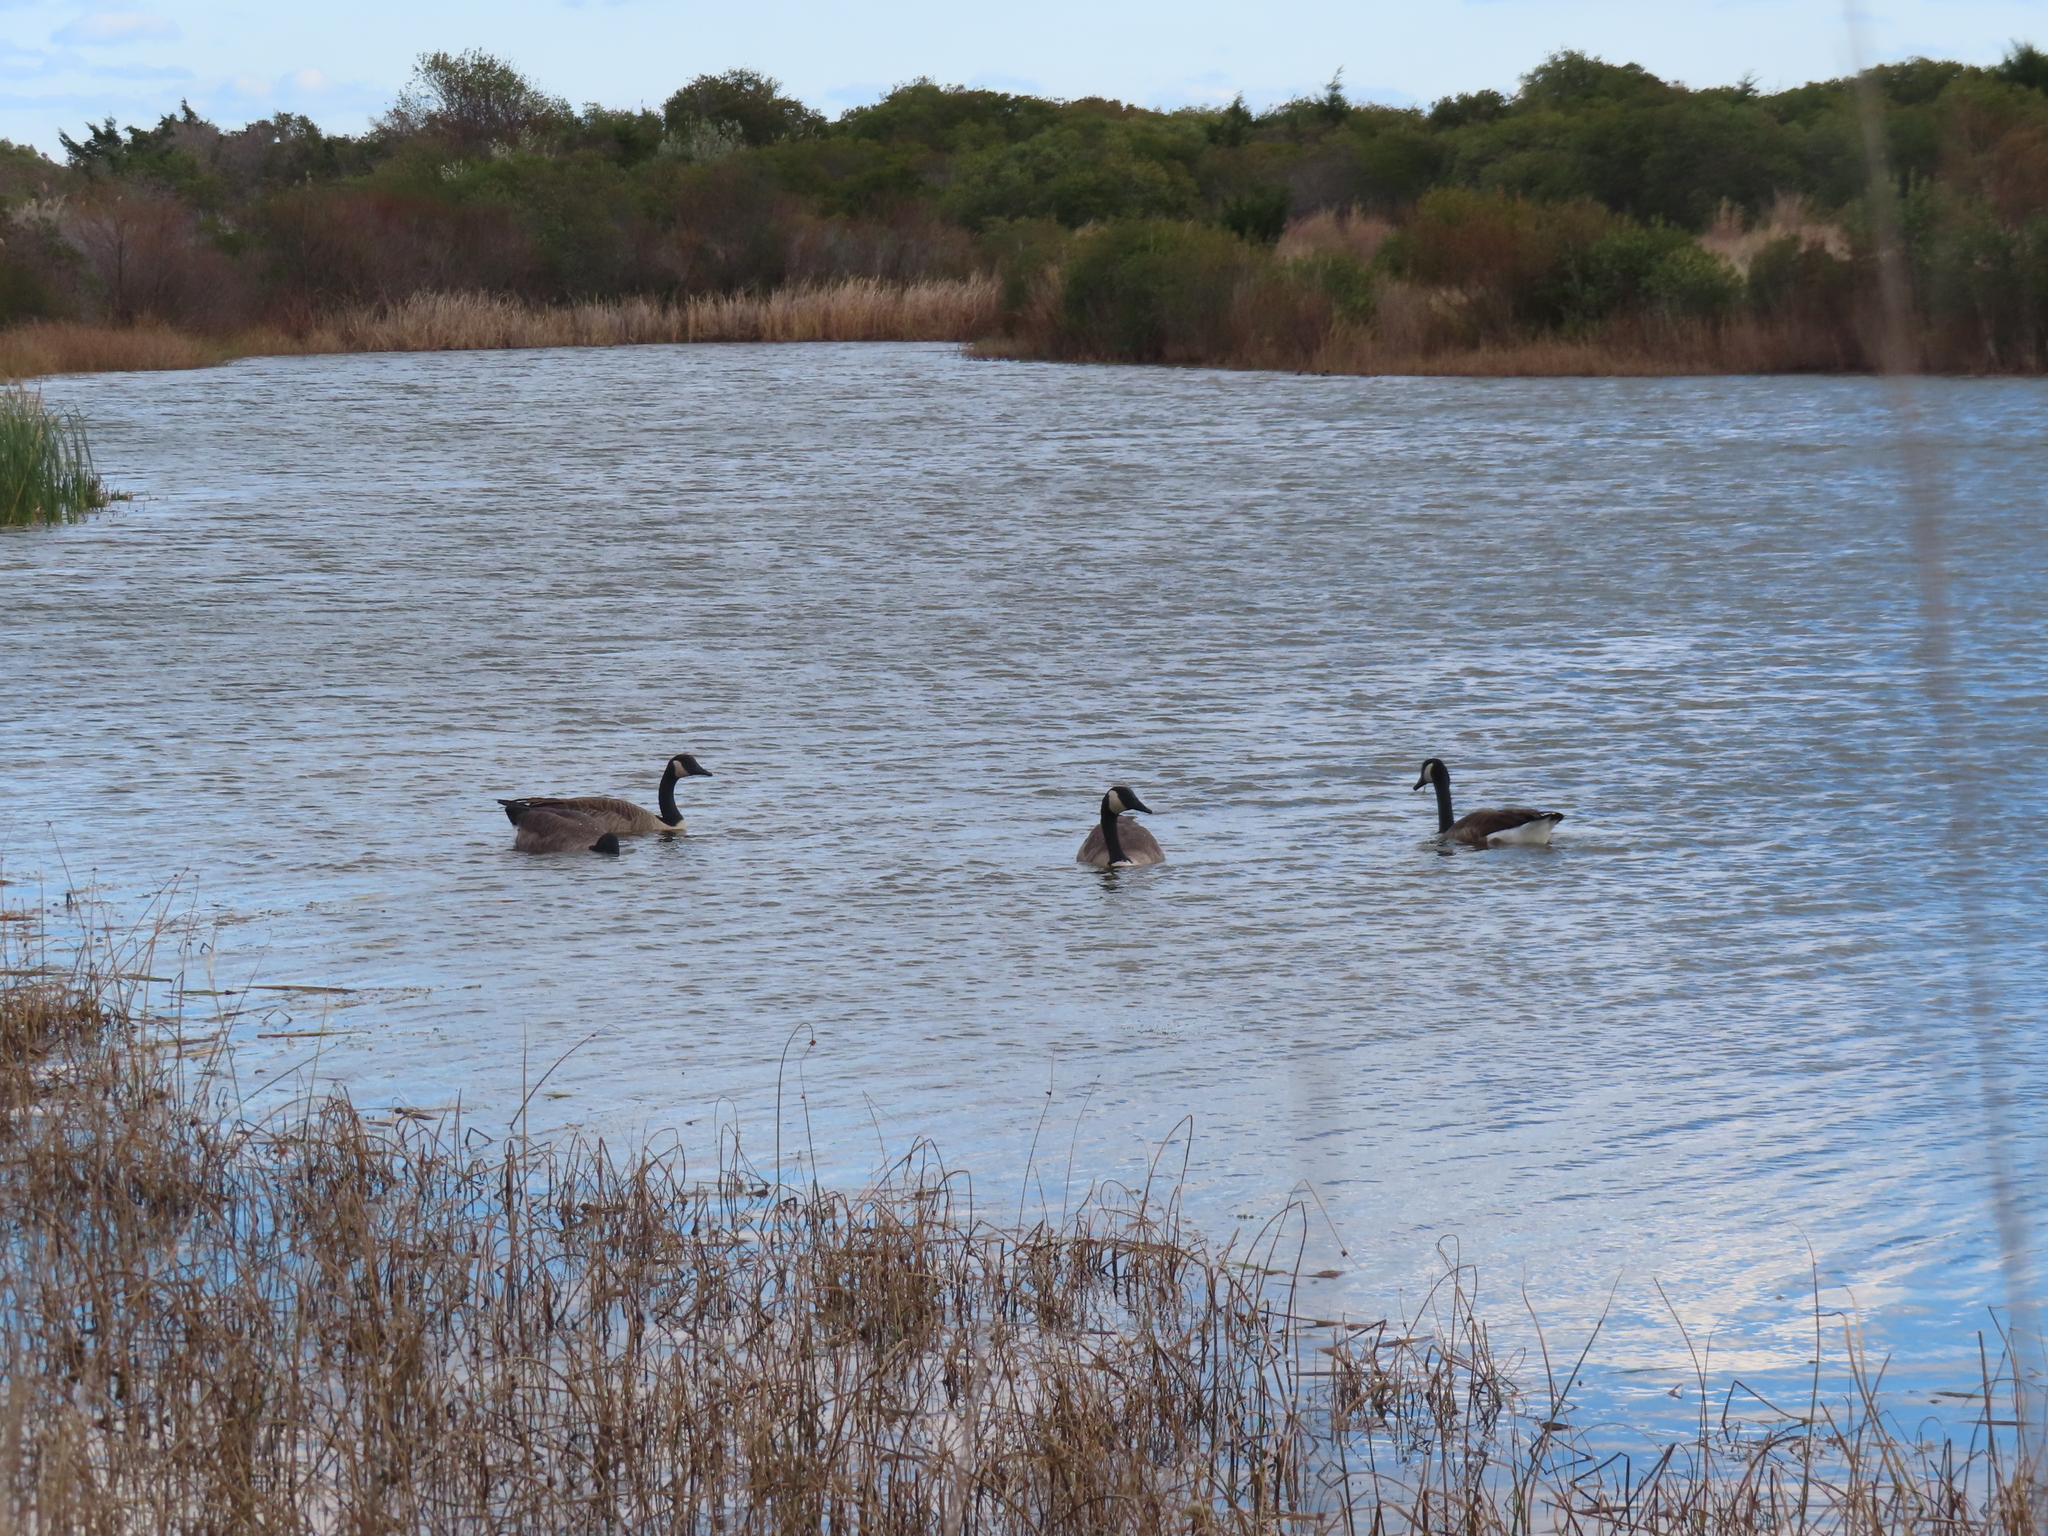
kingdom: Animalia
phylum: Chordata
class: Aves
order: Anseriformes
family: Anatidae
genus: Branta
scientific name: Branta canadensis
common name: Canada goose
